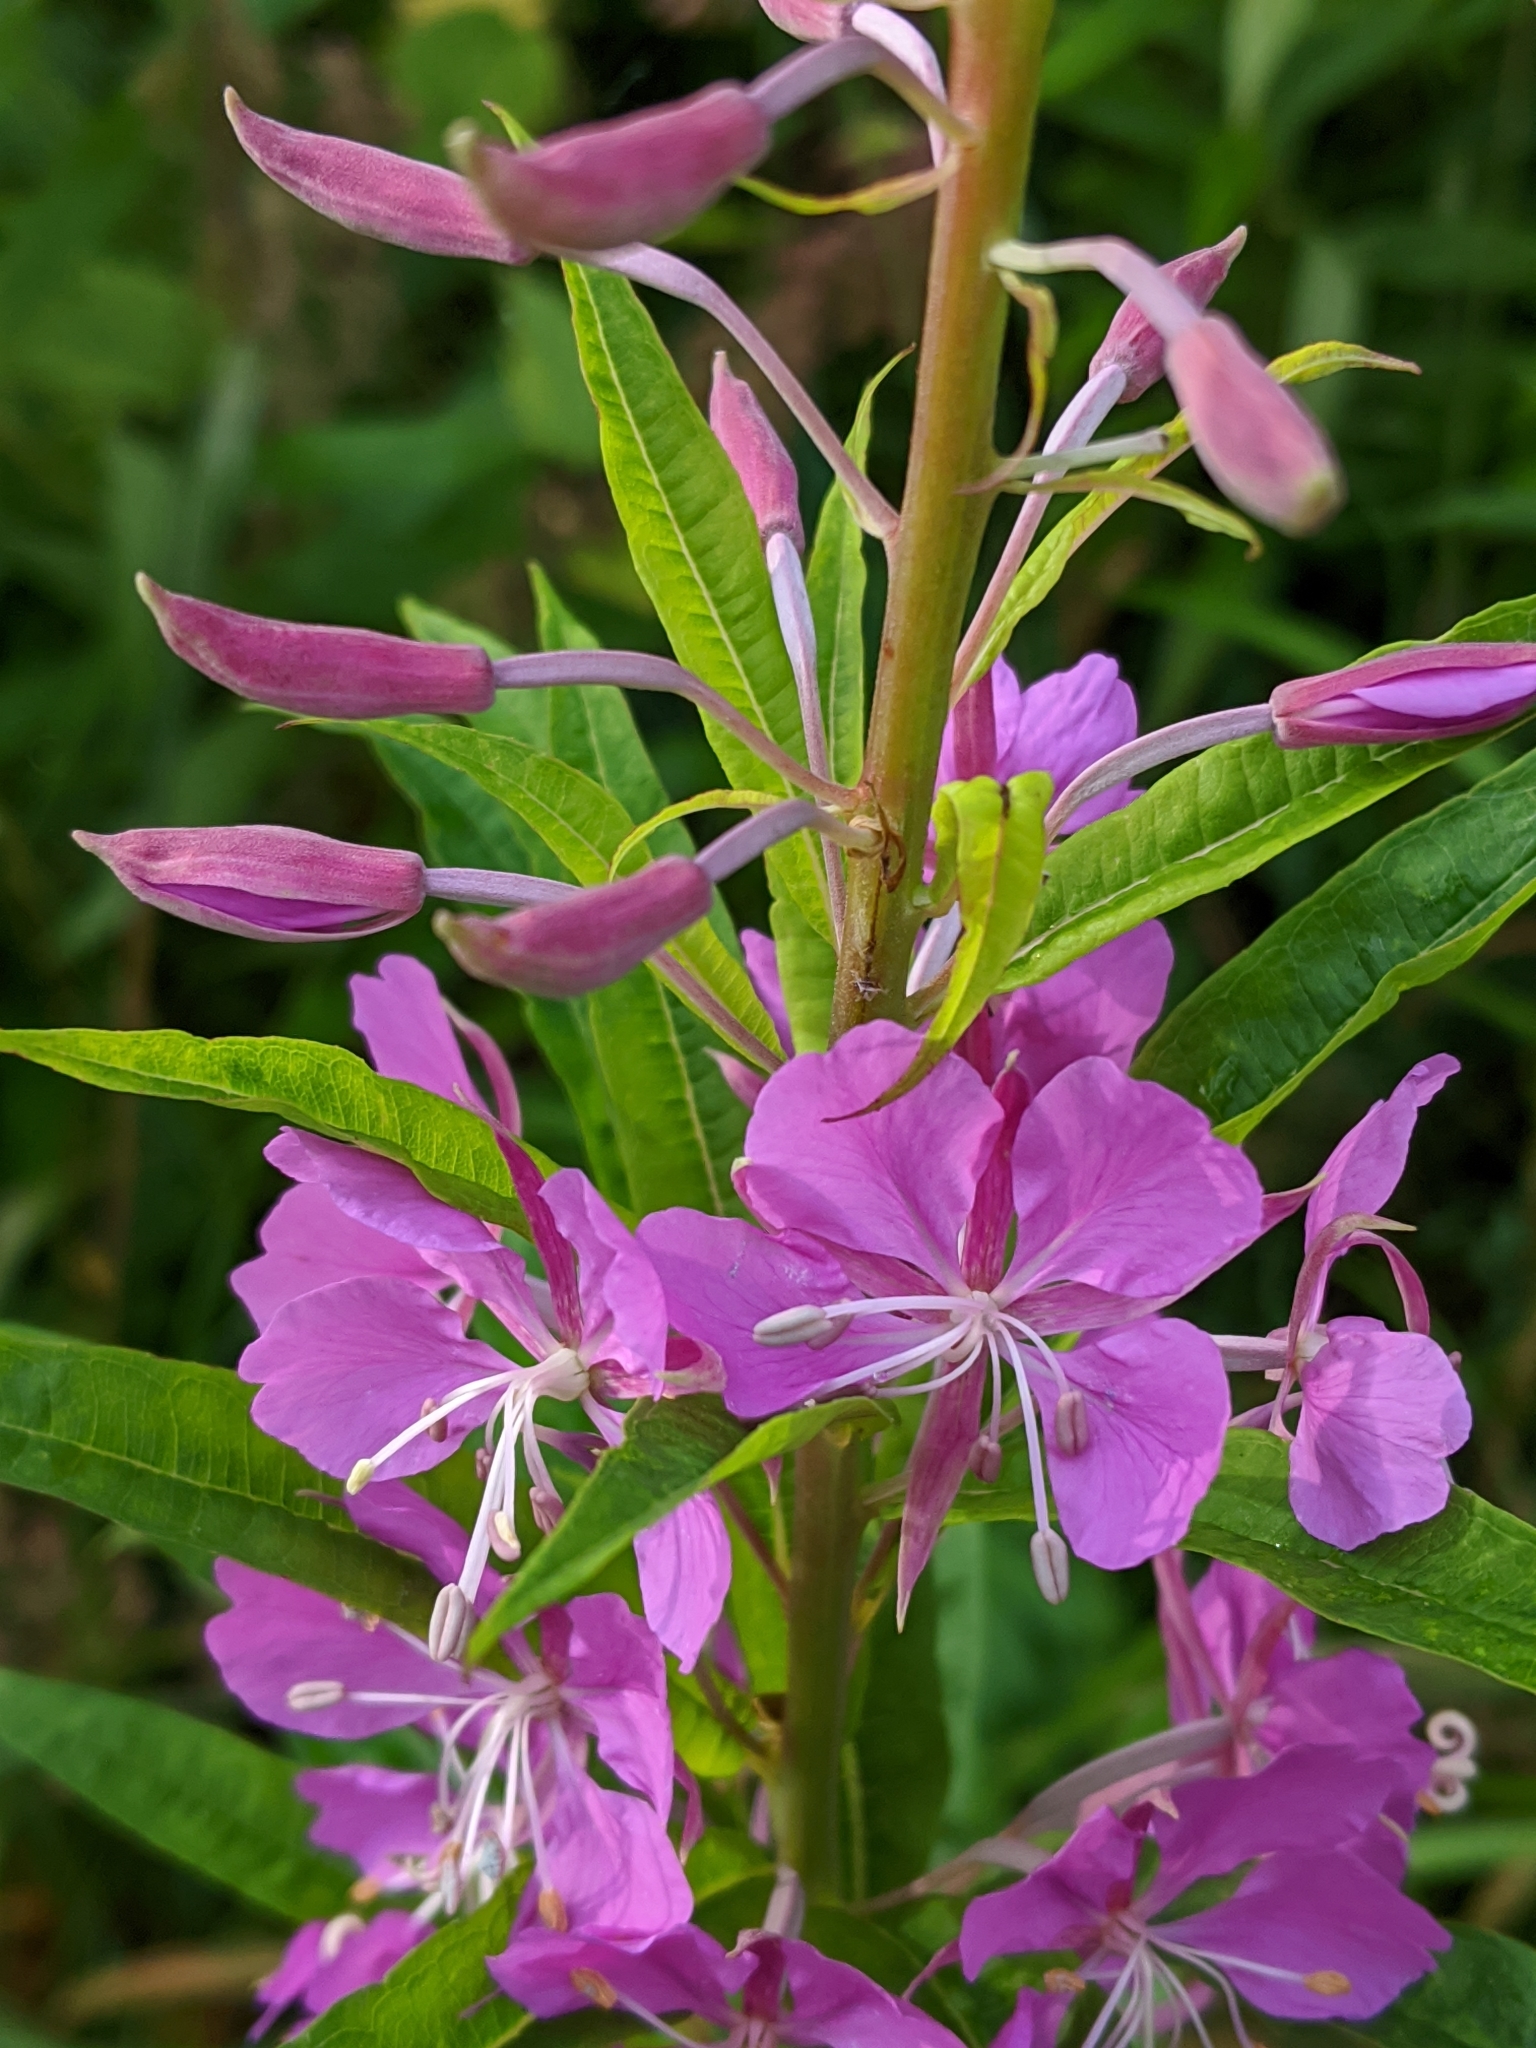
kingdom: Plantae
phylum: Tracheophyta
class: Magnoliopsida
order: Myrtales
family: Onagraceae
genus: Chamaenerion
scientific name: Chamaenerion angustifolium
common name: Fireweed
